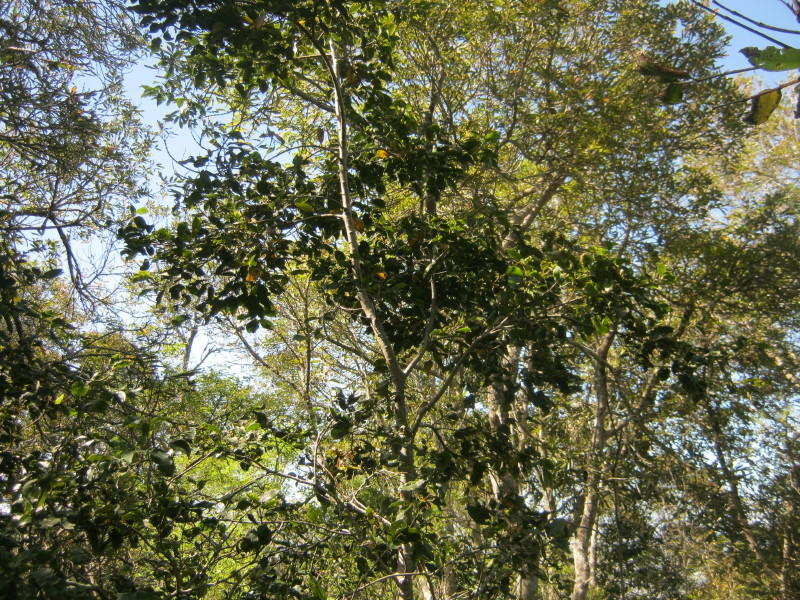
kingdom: Plantae
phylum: Tracheophyta
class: Magnoliopsida
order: Laurales
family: Lauraceae
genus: Ocotea
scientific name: Ocotea bullata
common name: Black stinkwood
